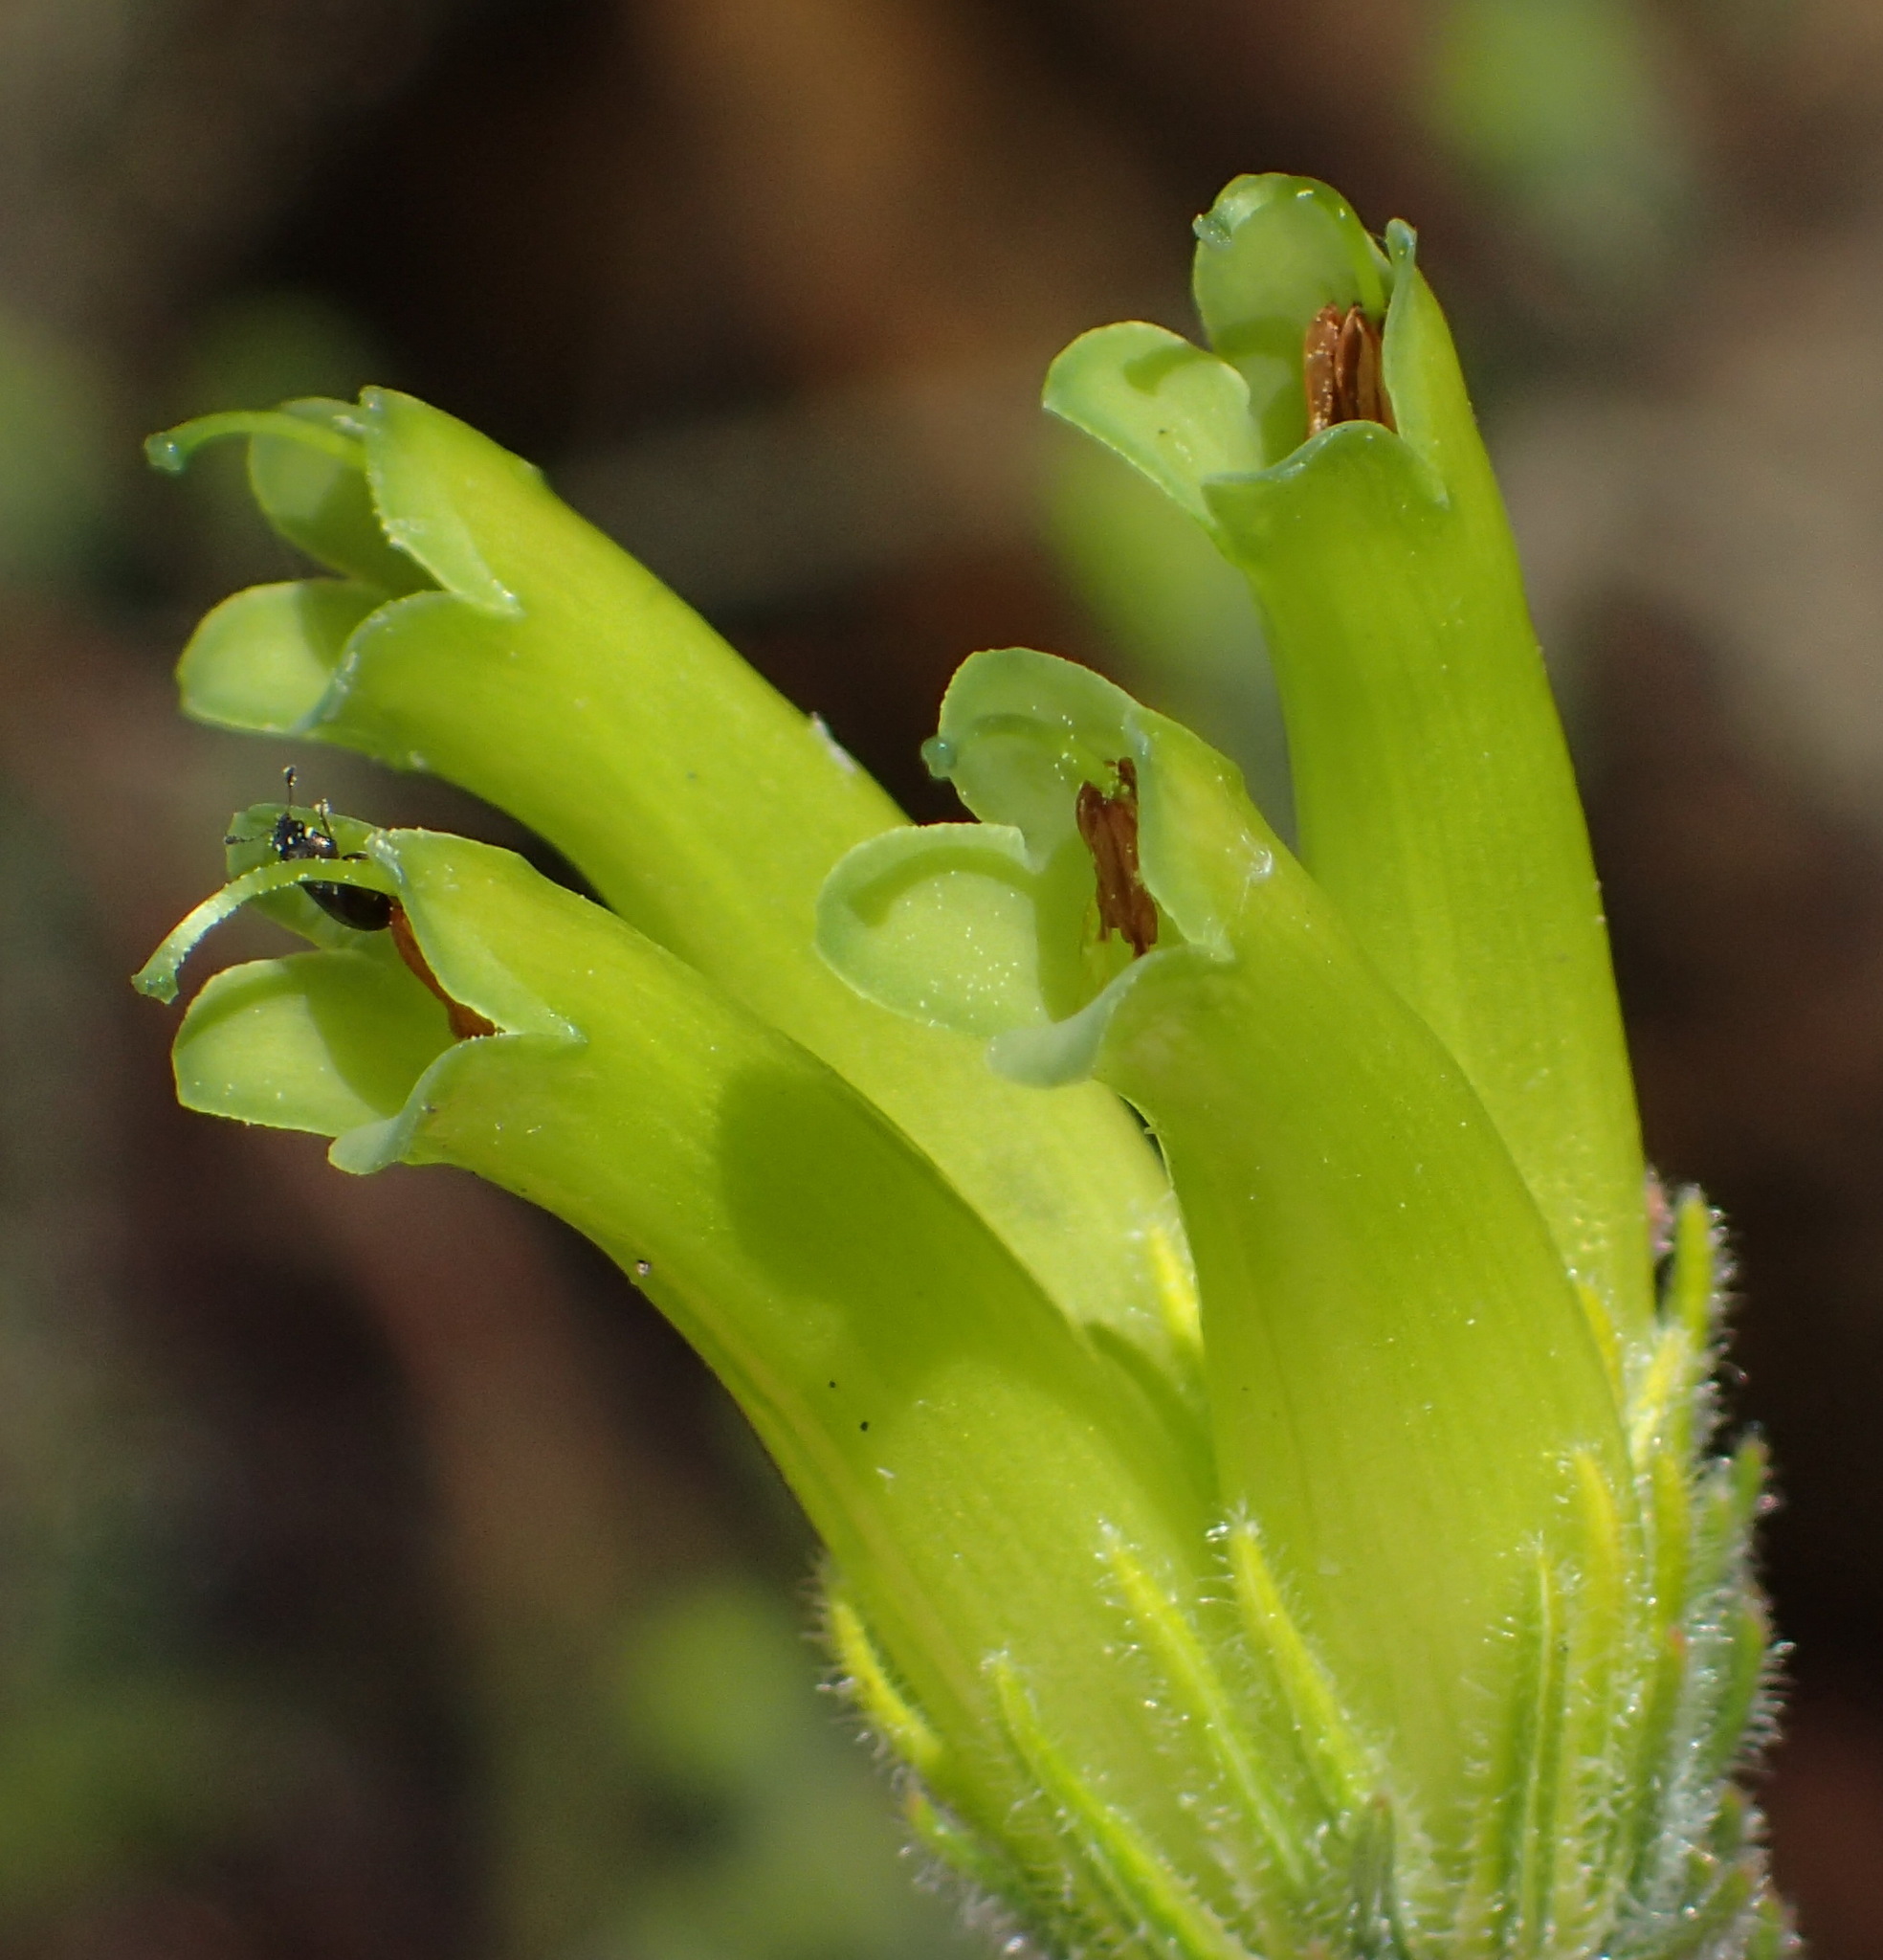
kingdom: Plantae
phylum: Tracheophyta
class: Magnoliopsida
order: Ericales
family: Ericaceae
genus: Erica
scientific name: Erica unicolor
